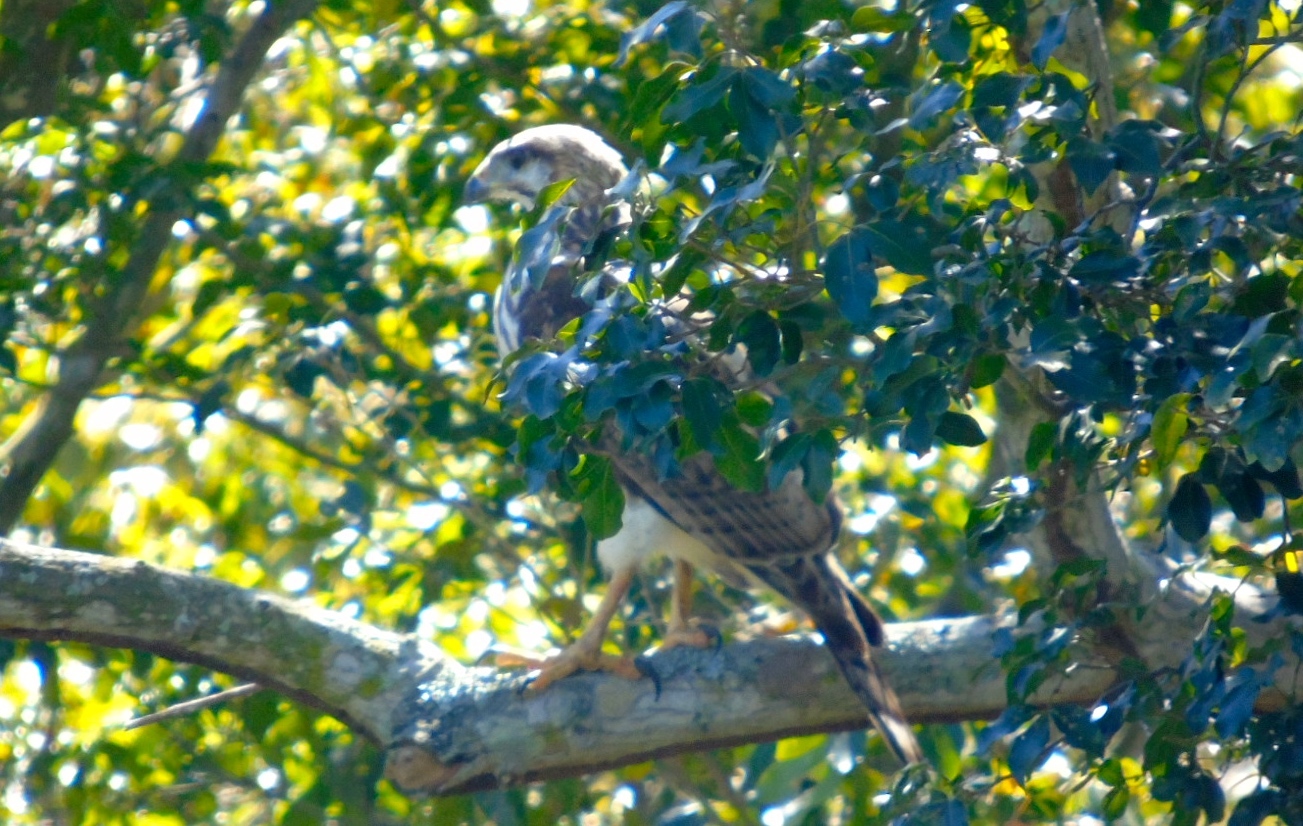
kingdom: Animalia
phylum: Chordata
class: Aves
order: Accipitriformes
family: Accipitridae
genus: Buteo
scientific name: Buteo nitidus
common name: Grey-lined hawk
